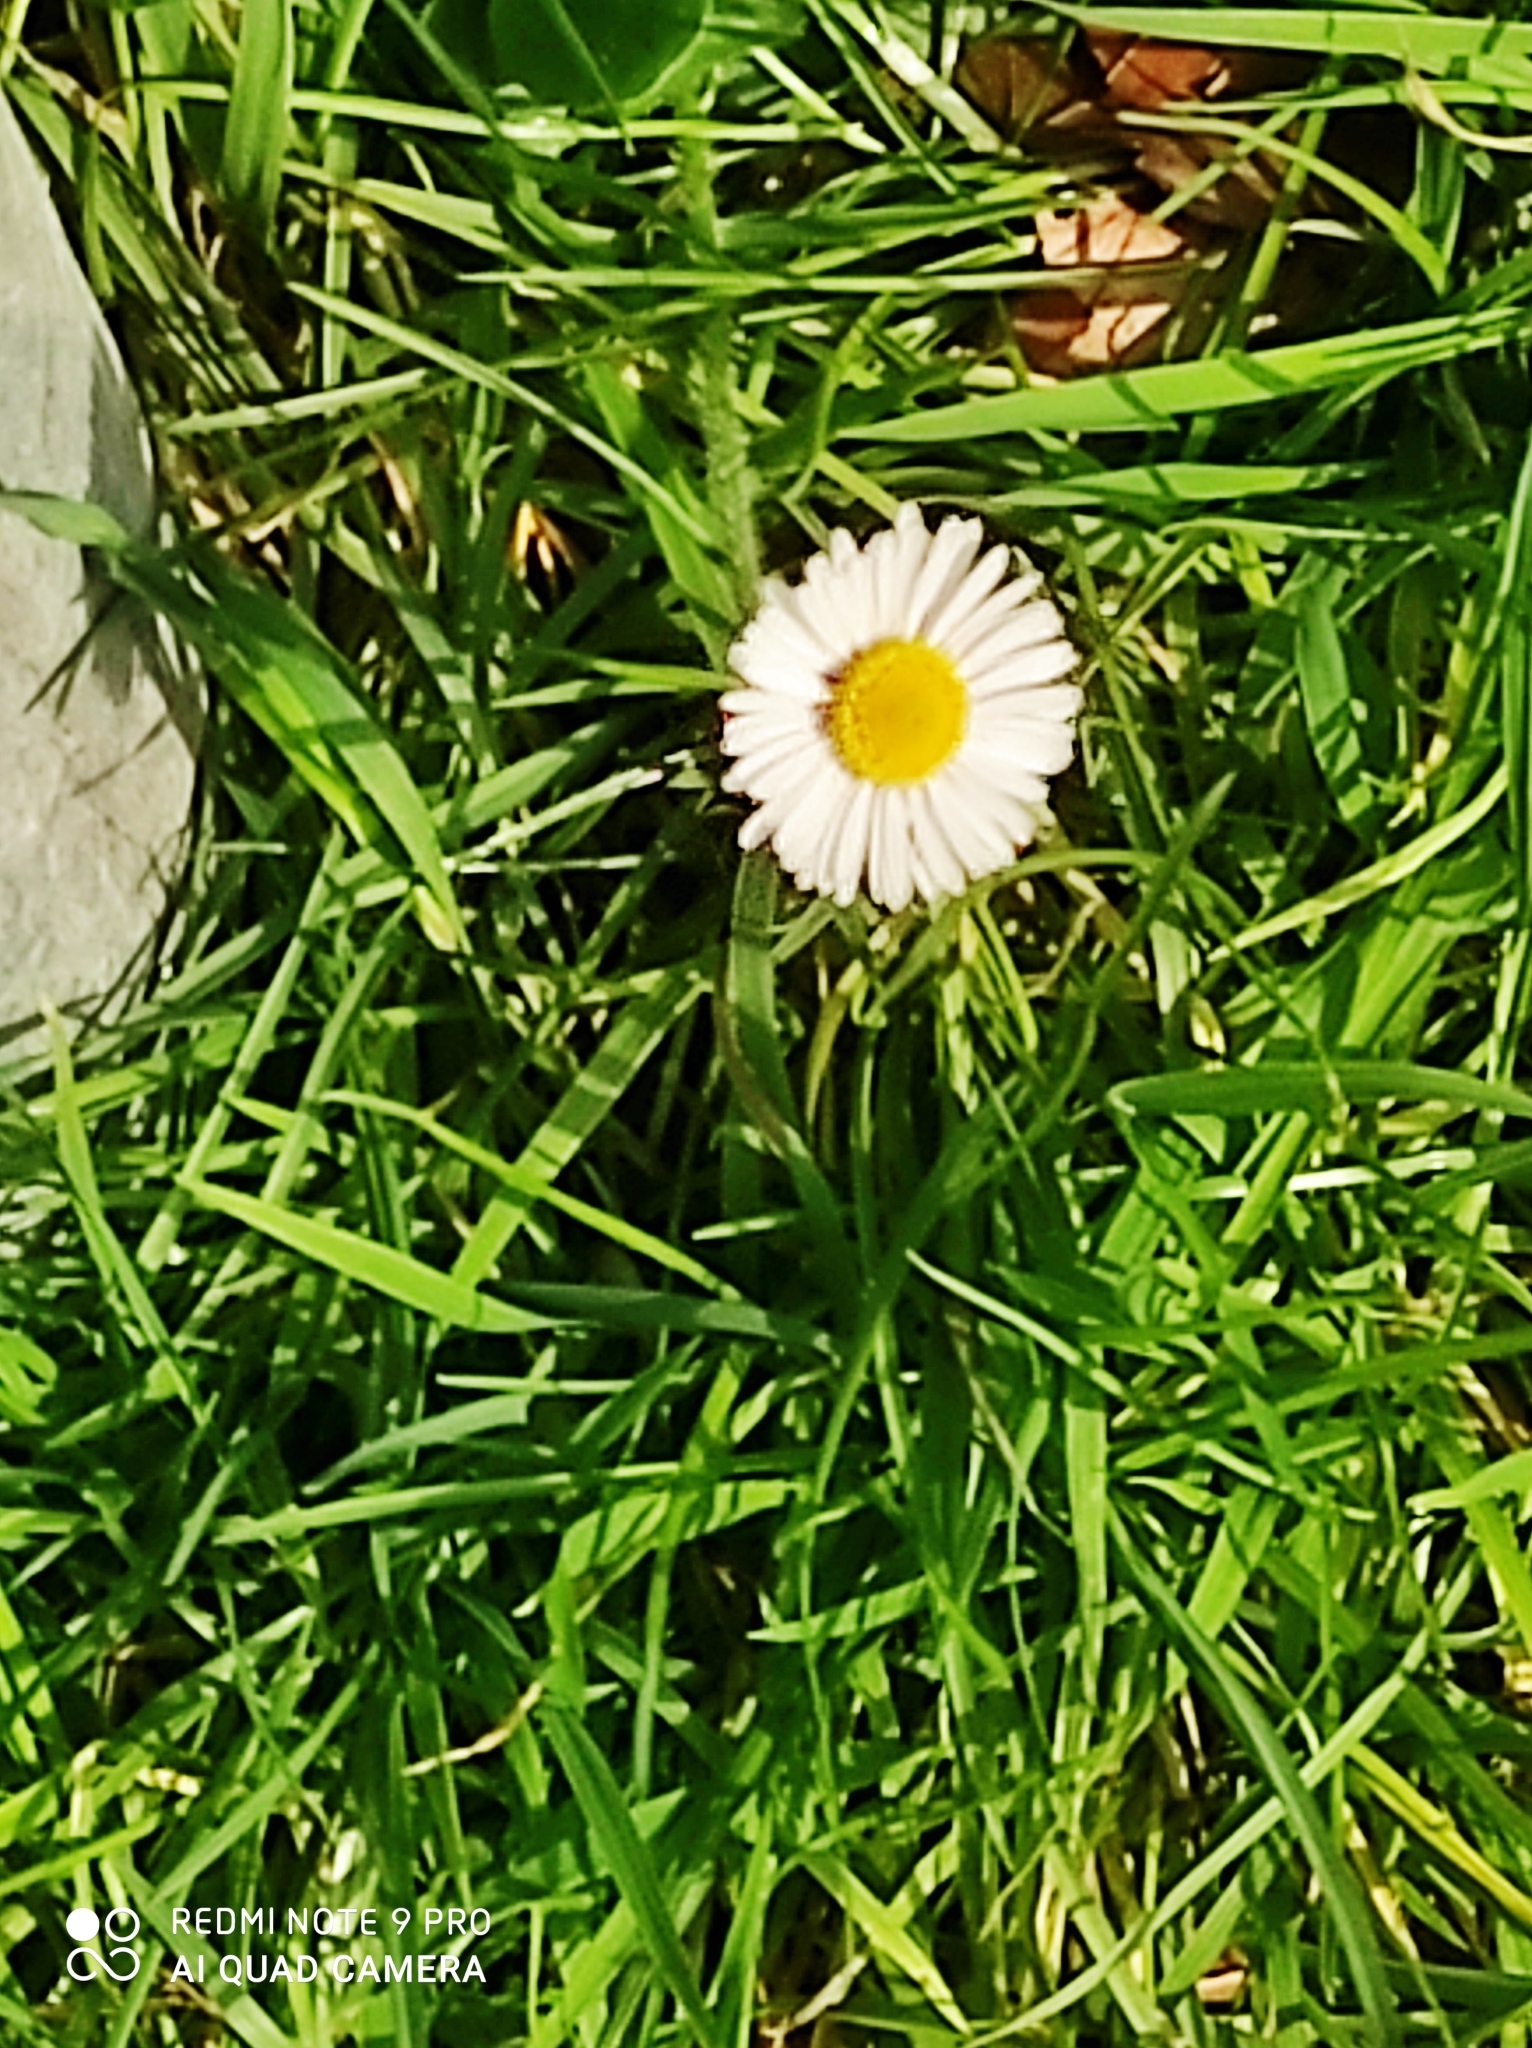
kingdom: Plantae
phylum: Tracheophyta
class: Magnoliopsida
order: Asterales
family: Asteraceae
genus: Bellis
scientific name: Bellis perennis
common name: Lawndaisy
